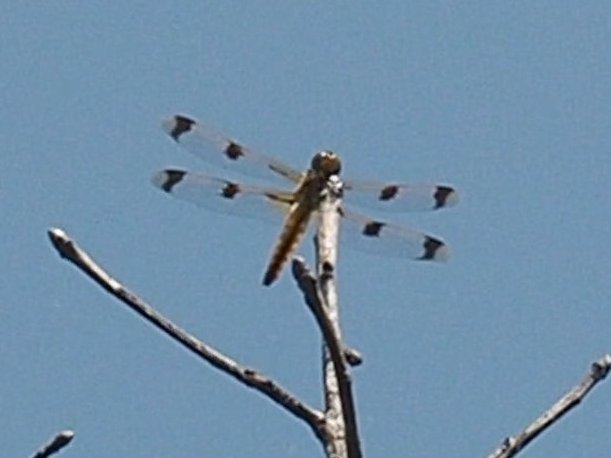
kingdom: Animalia
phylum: Arthropoda
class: Insecta
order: Odonata
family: Libellulidae
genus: Libellula
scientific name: Libellula semifasciata
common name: Painted skimmer
